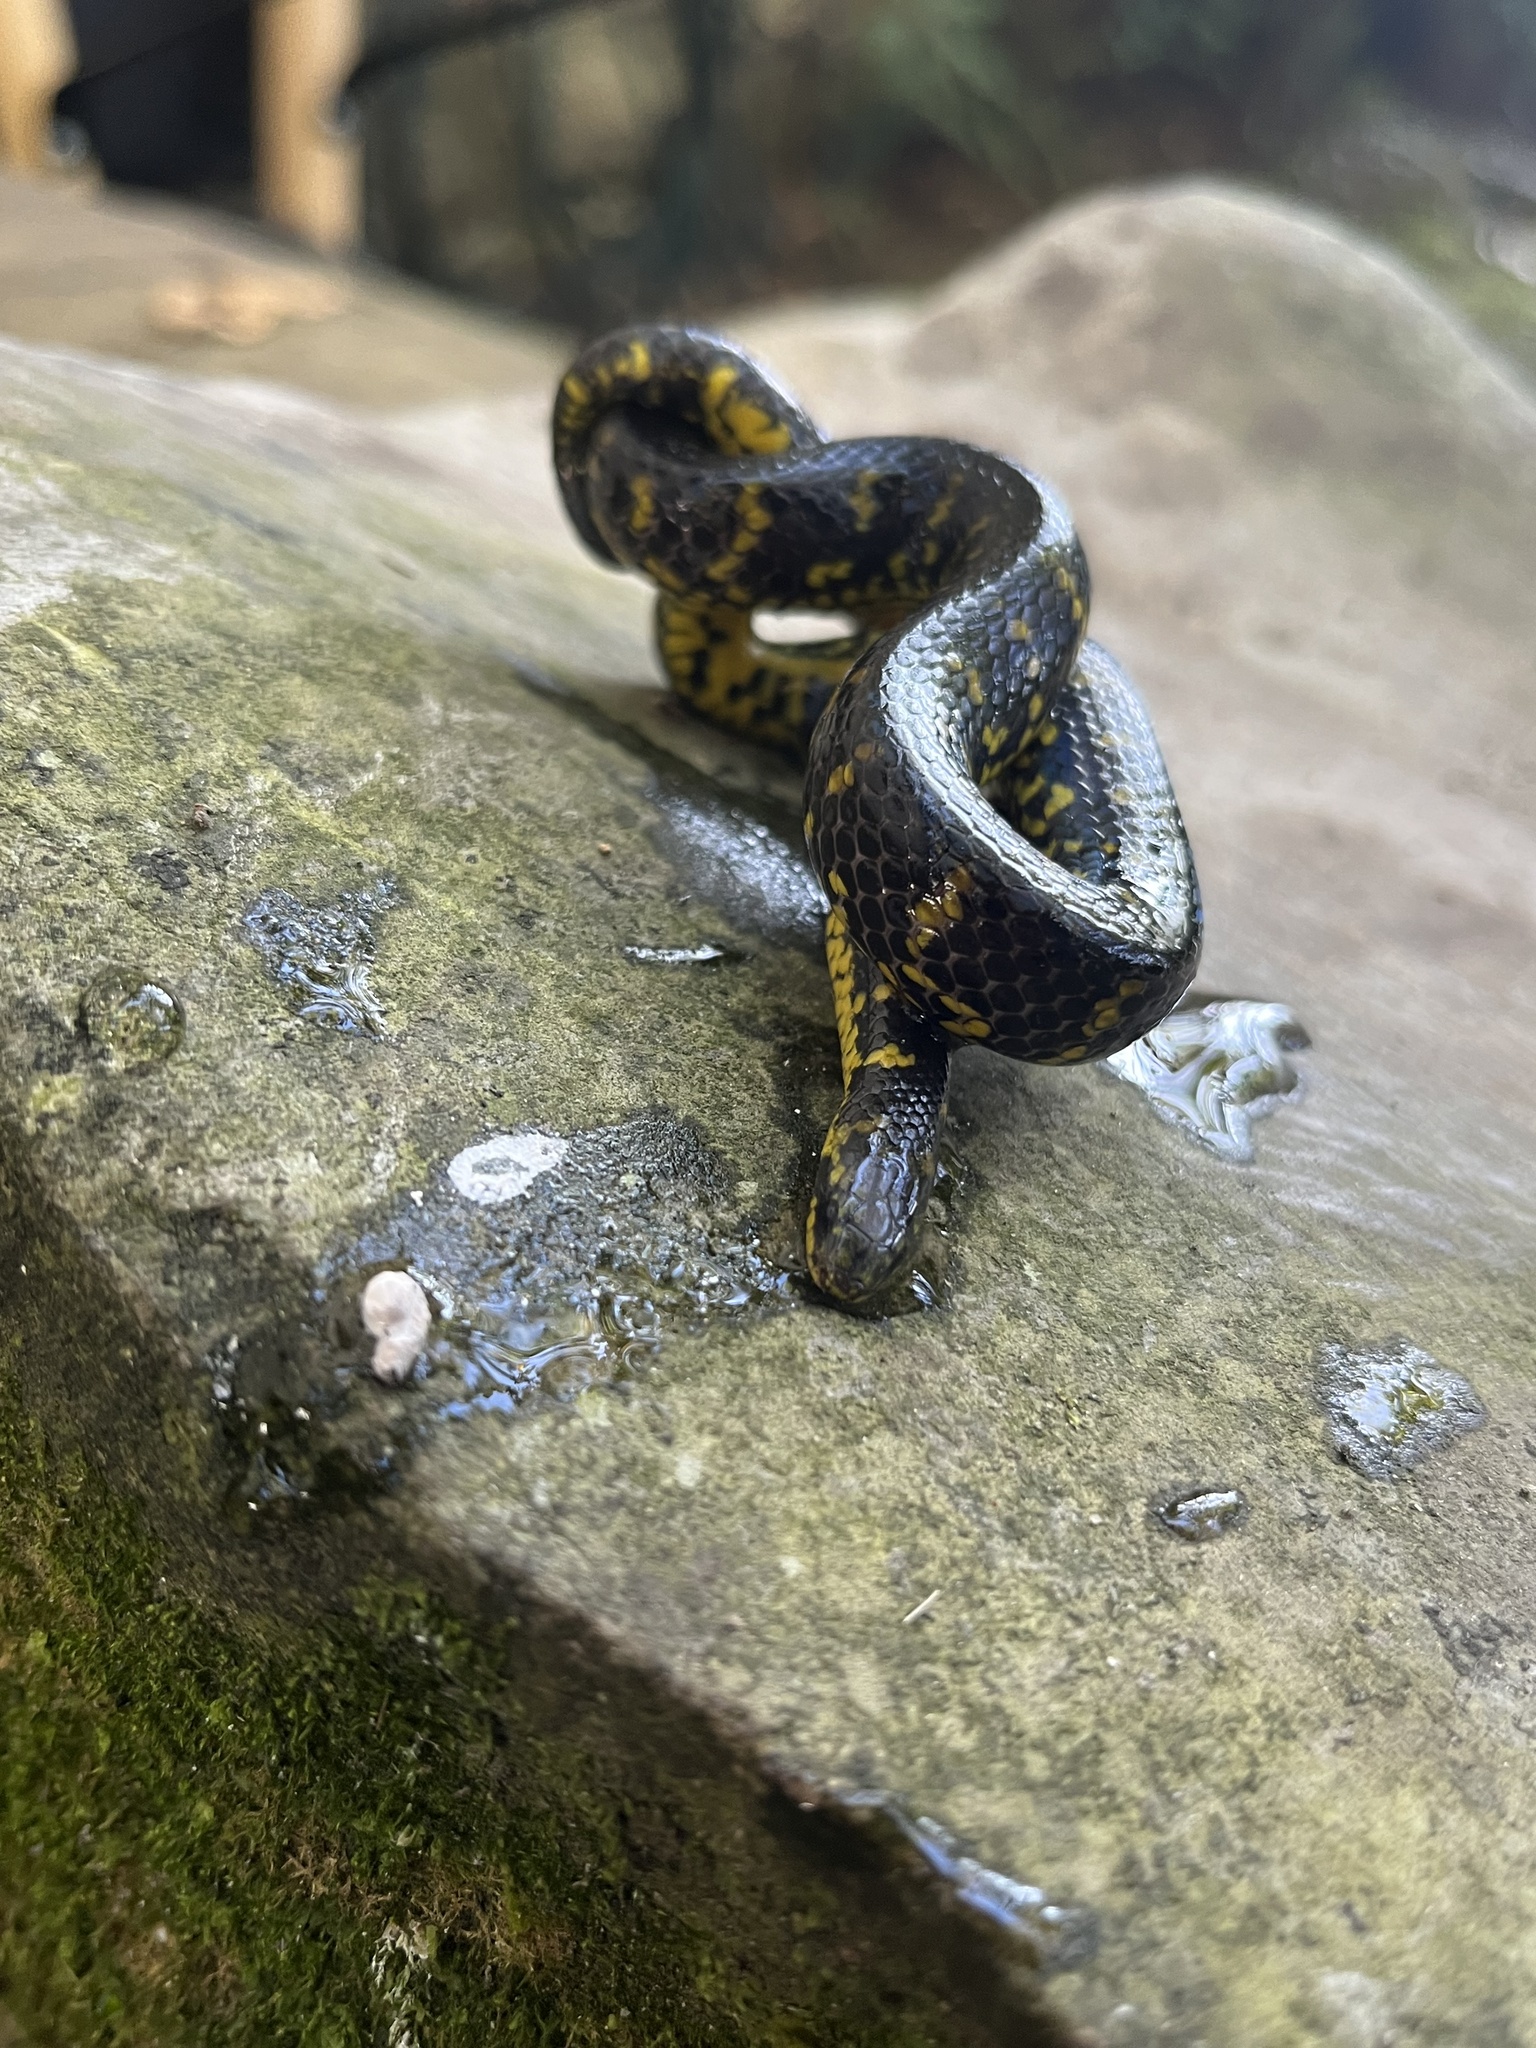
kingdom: Animalia
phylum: Chordata
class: Squamata
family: Colubridae
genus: Atractus
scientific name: Atractus crassicaudatus
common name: Thickhead ground snake
